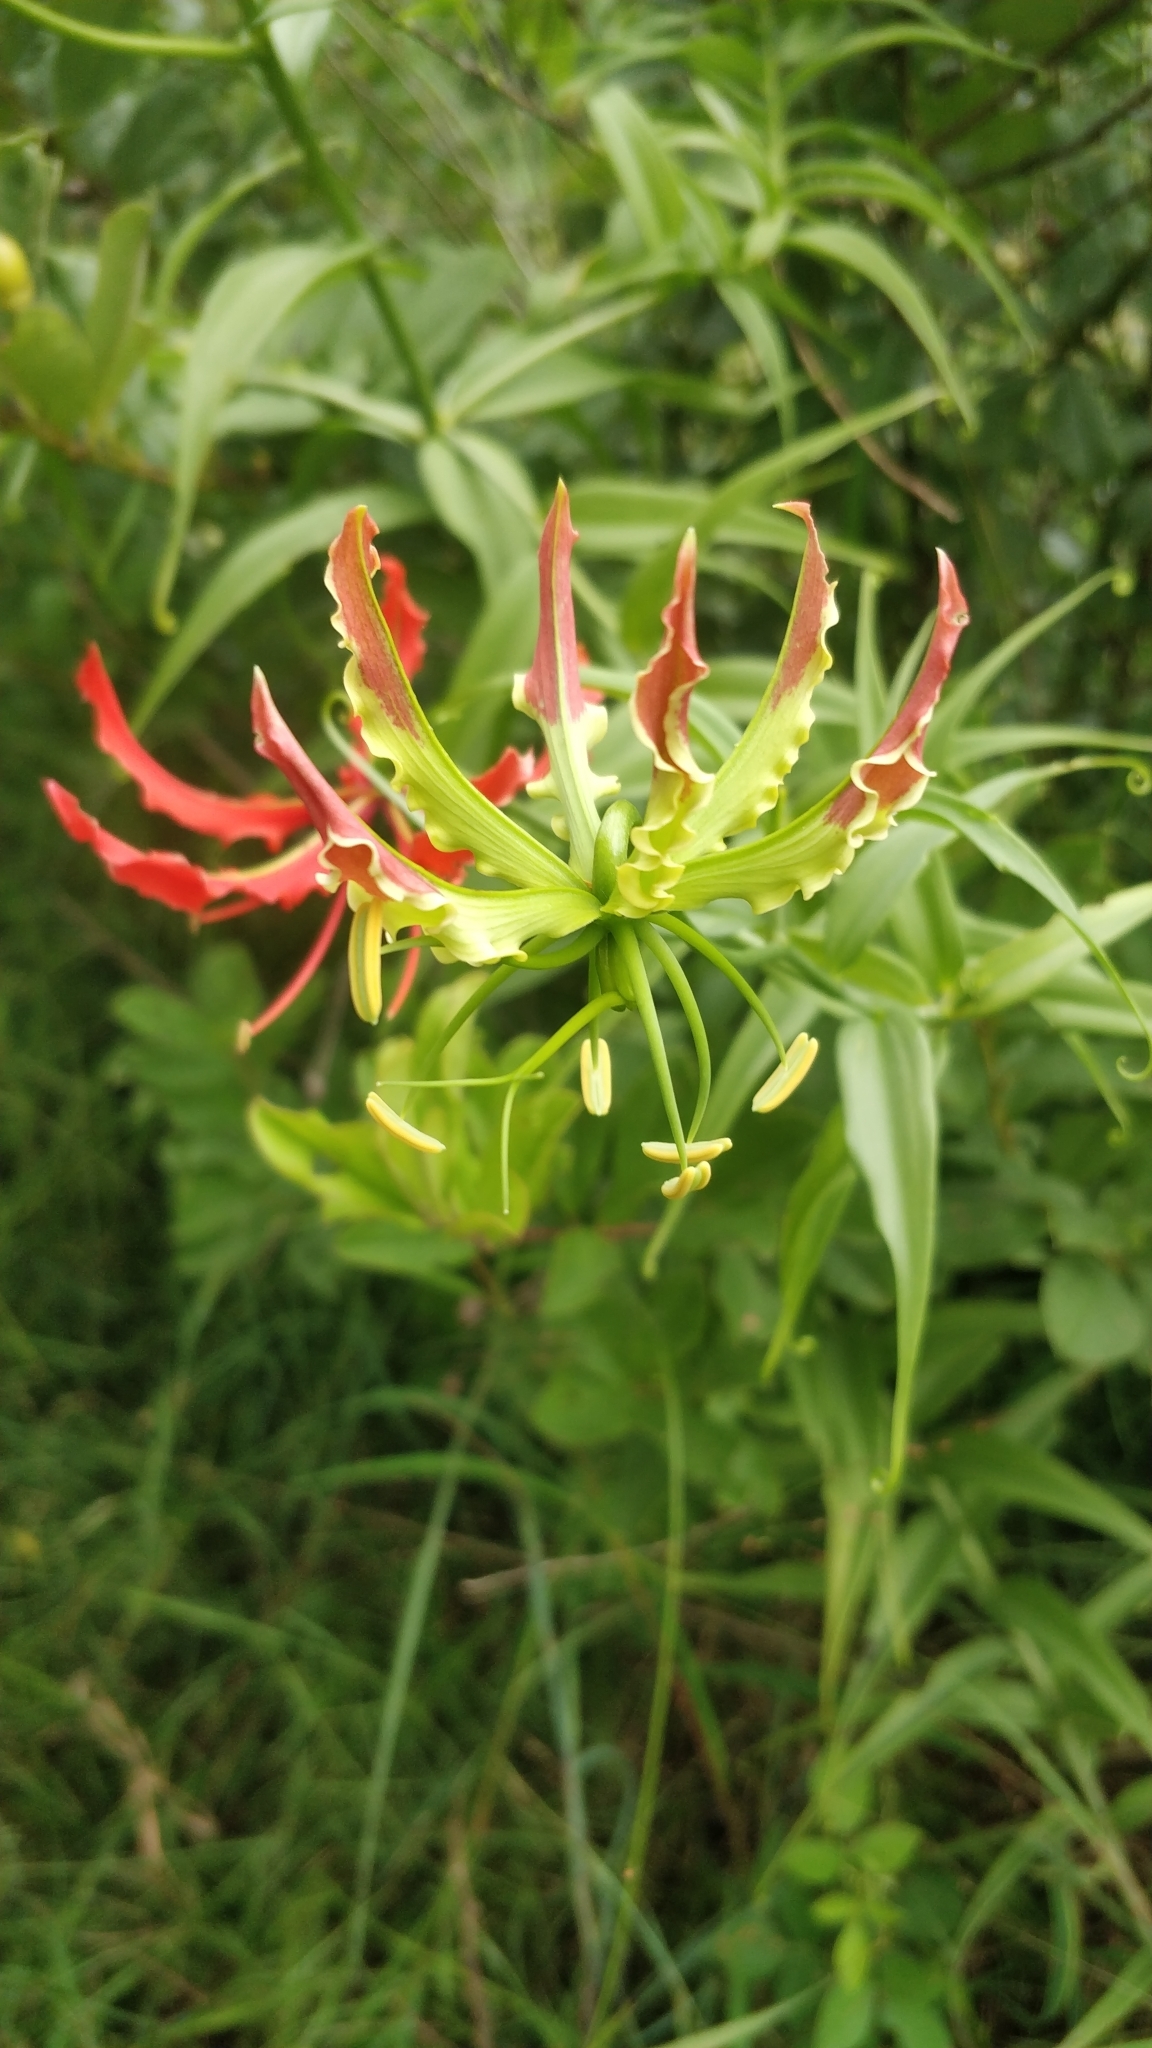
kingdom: Plantae
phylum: Tracheophyta
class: Liliopsida
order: Liliales
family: Colchicaceae
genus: Gloriosa
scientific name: Gloriosa superba
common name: Flame lily
